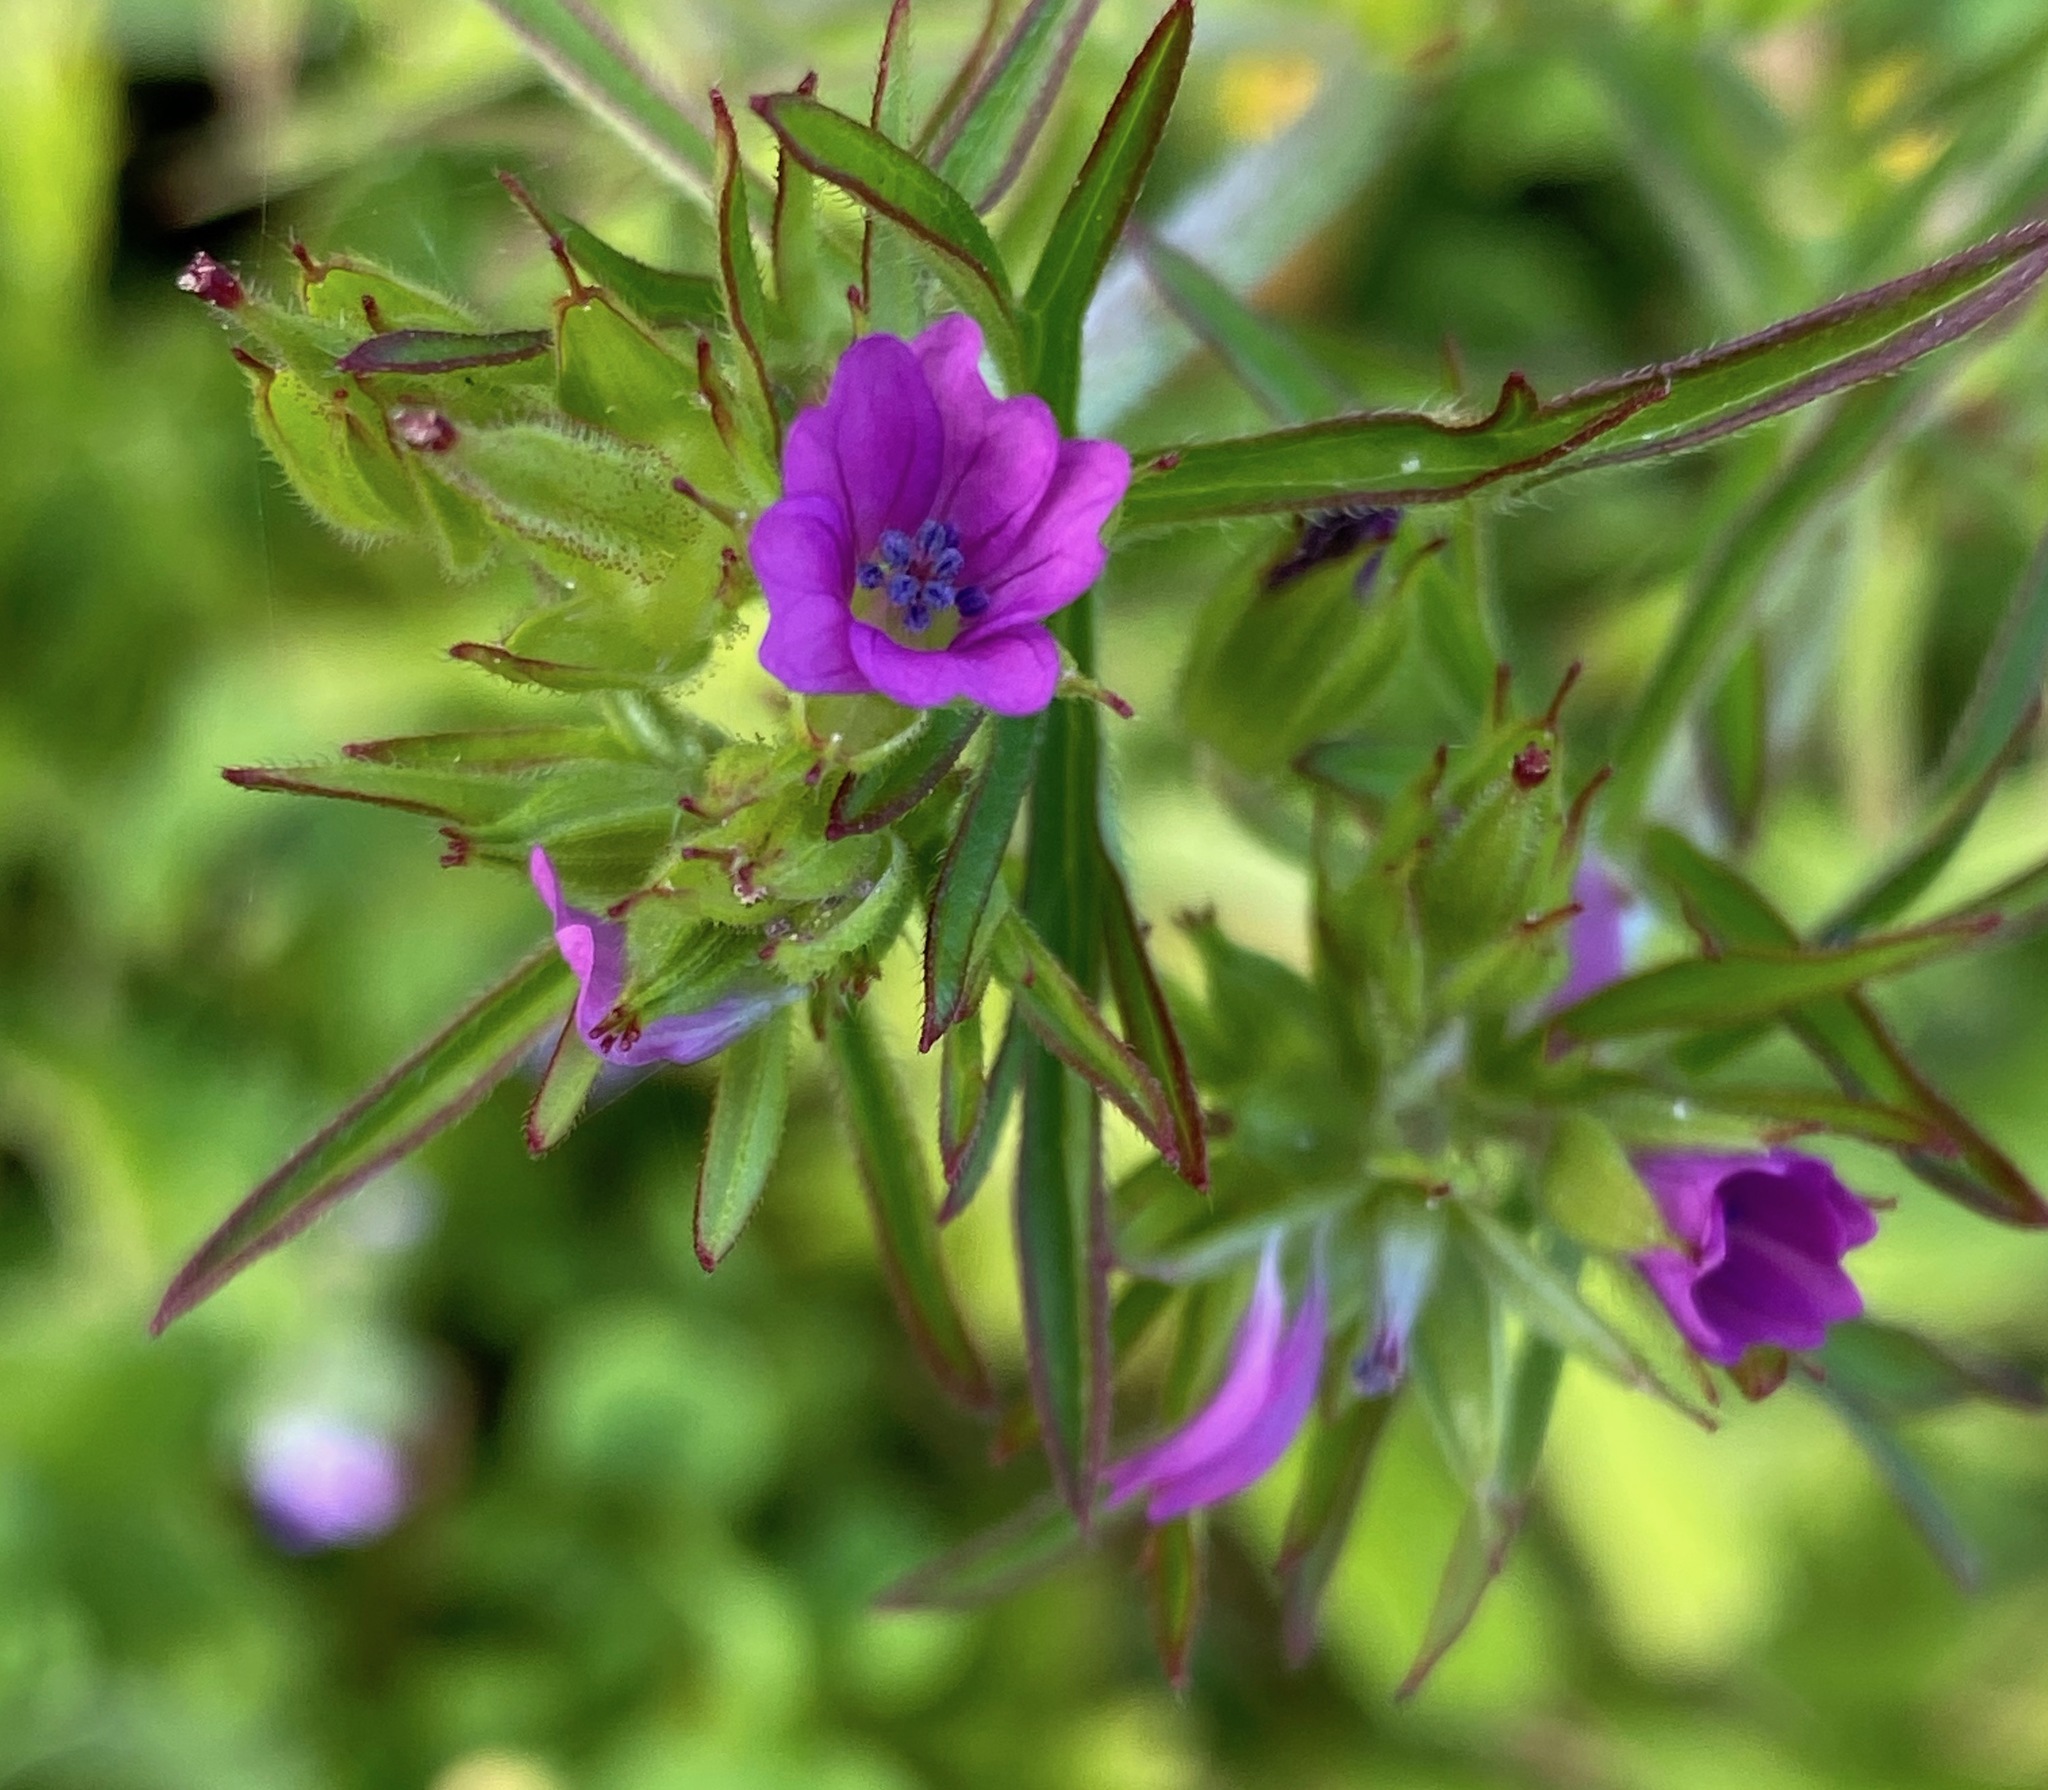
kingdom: Plantae
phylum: Tracheophyta
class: Magnoliopsida
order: Geraniales
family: Geraniaceae
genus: Geranium
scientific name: Geranium dissectum
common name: Cut-leaved crane's-bill
